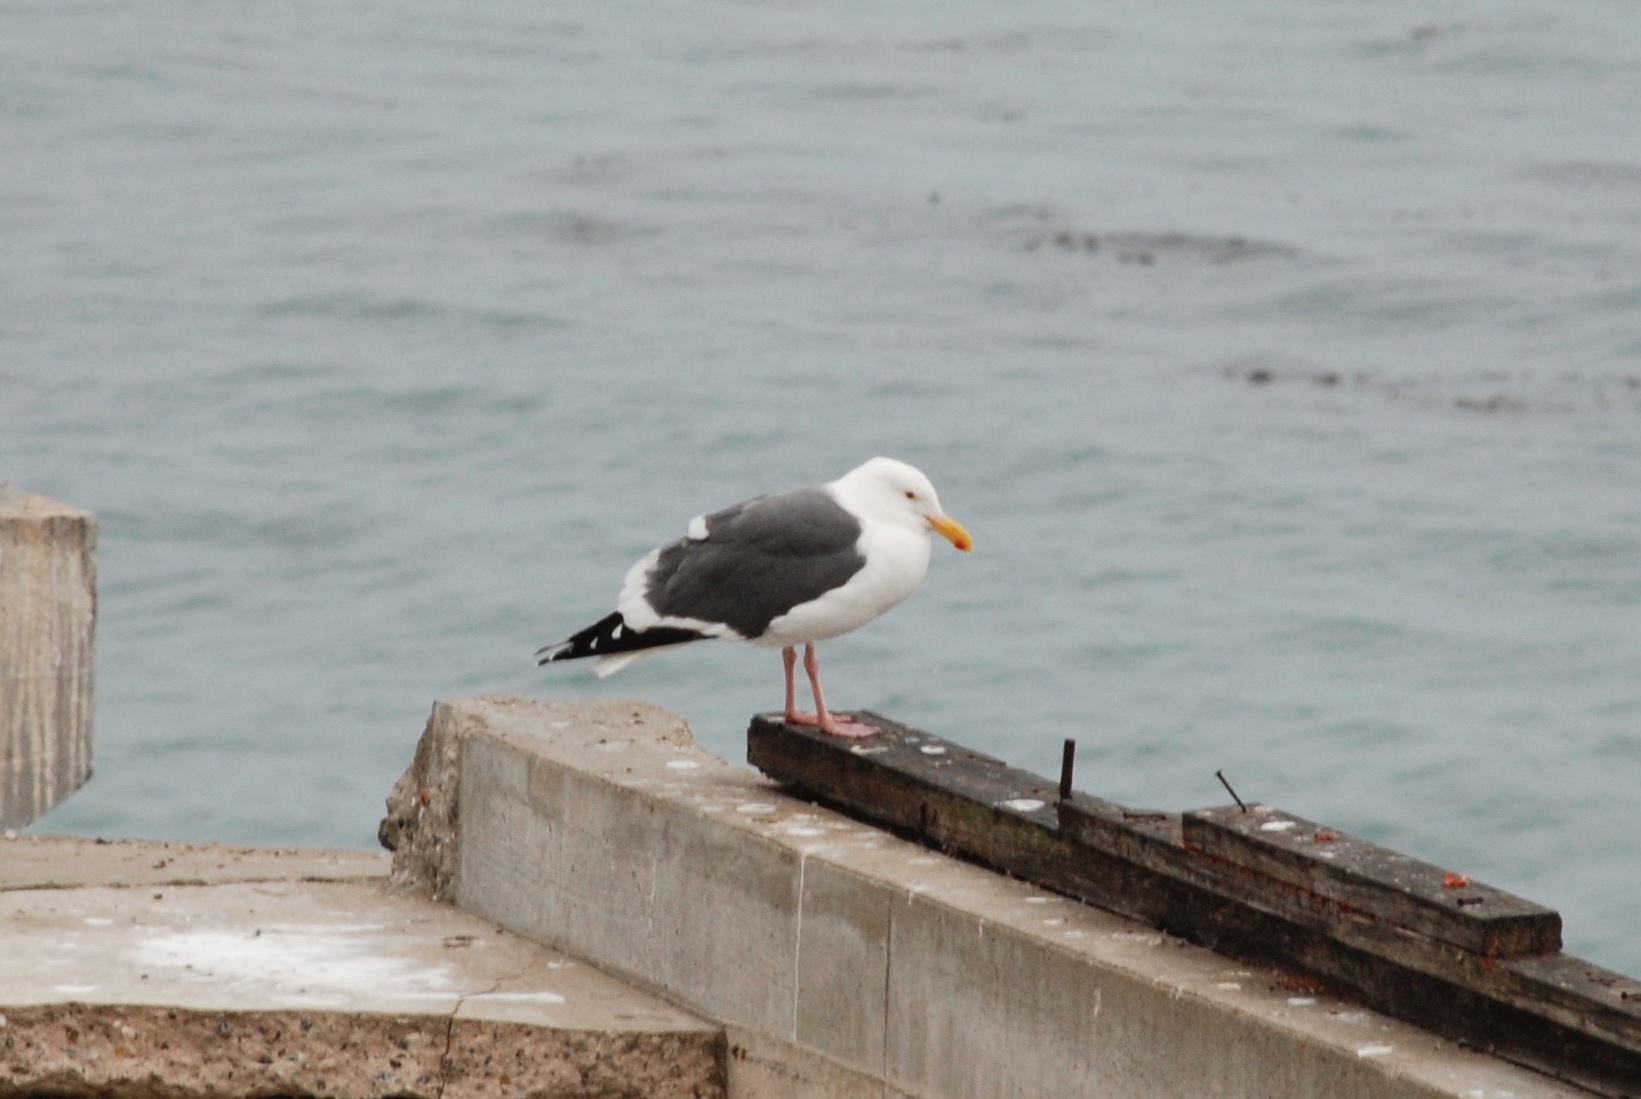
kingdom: Animalia
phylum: Chordata
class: Aves
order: Charadriiformes
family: Laridae
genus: Larus
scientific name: Larus occidentalis
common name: Western gull
